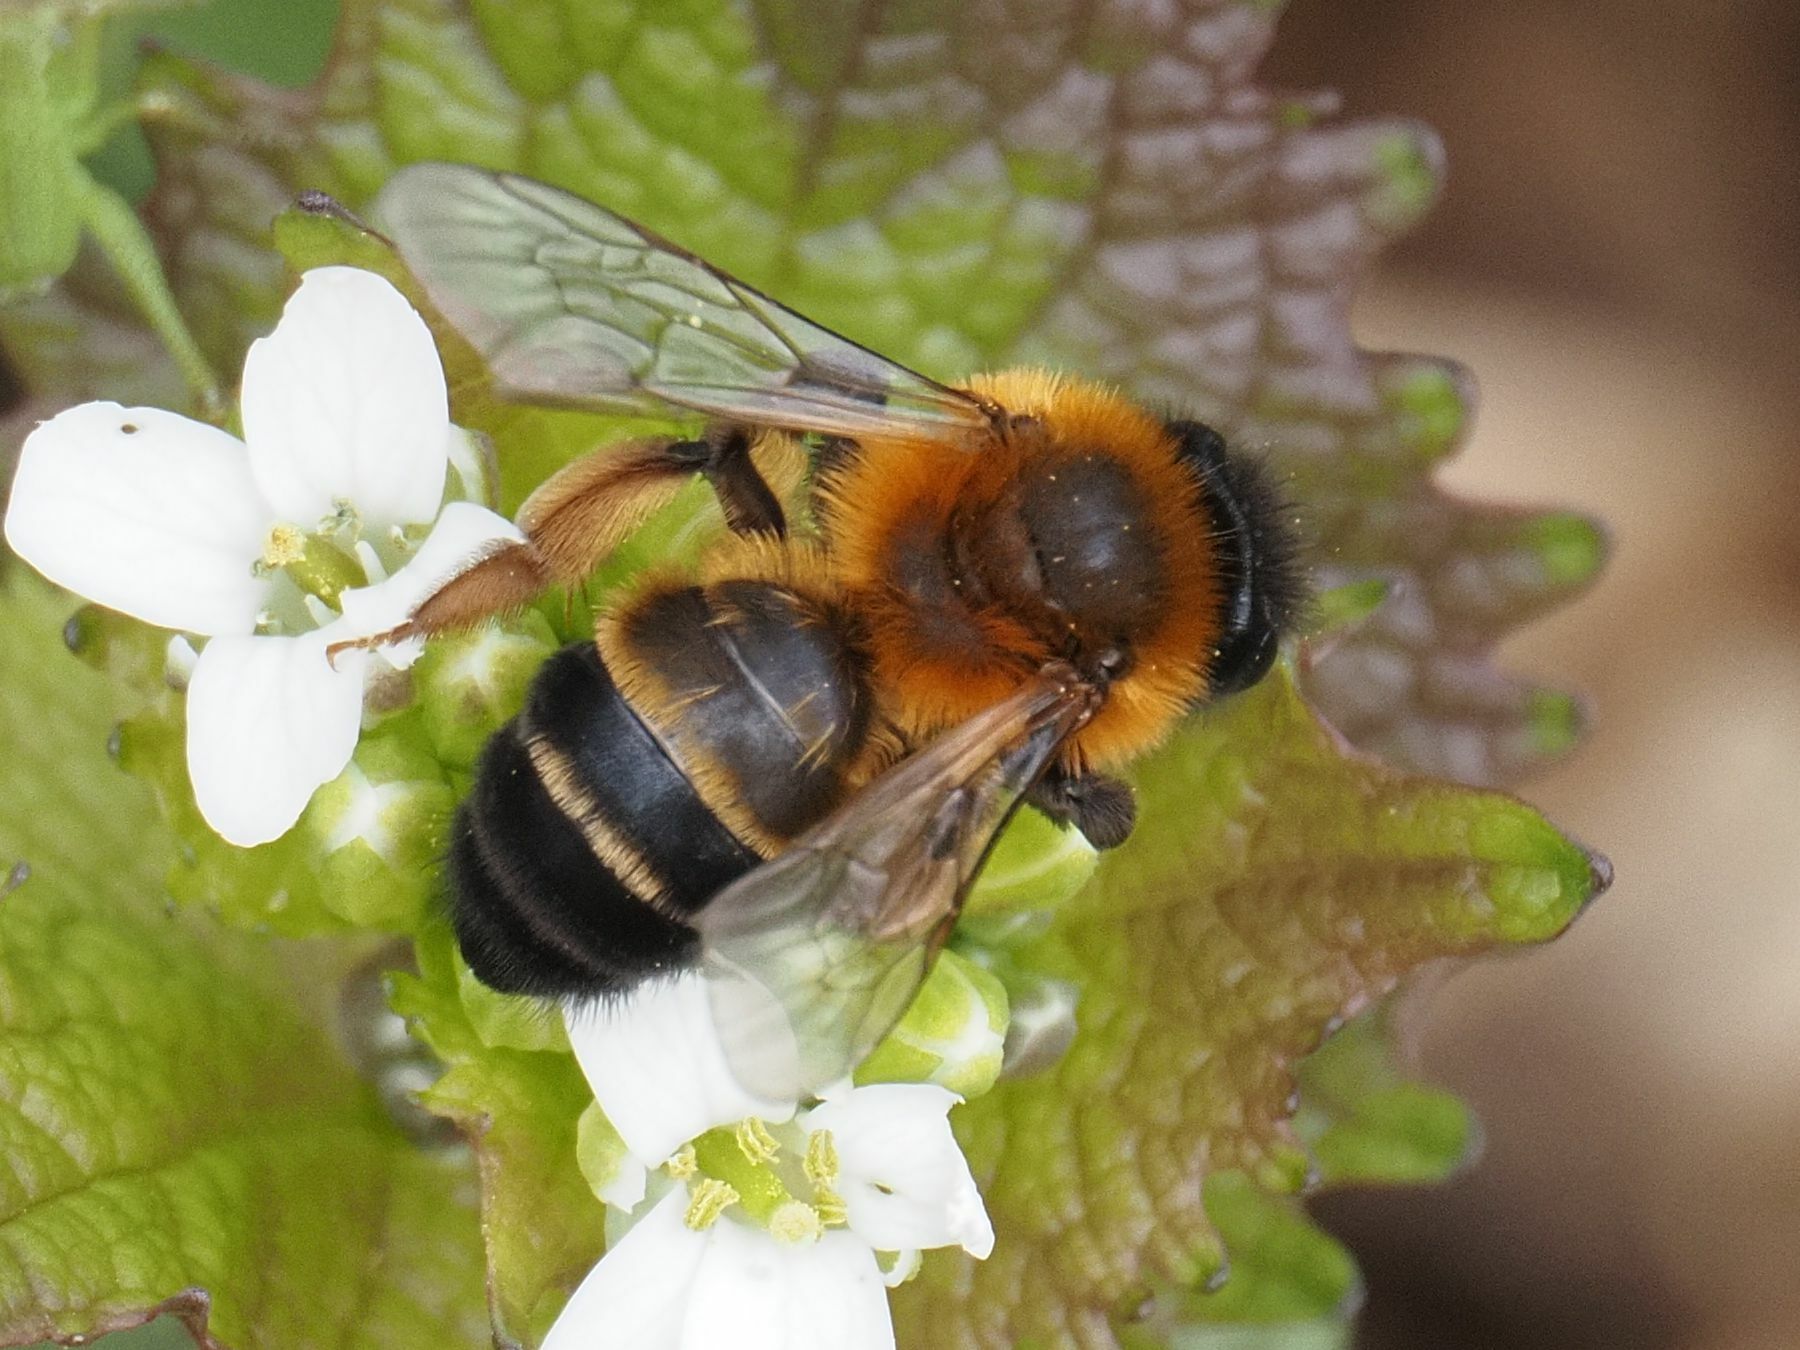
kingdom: Animalia
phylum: Arthropoda
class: Insecta
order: Orthoptera
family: Tettigoniidae
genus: Barbitistes
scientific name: Barbitistes serricauda
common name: Saw-tailed bush-cricket
